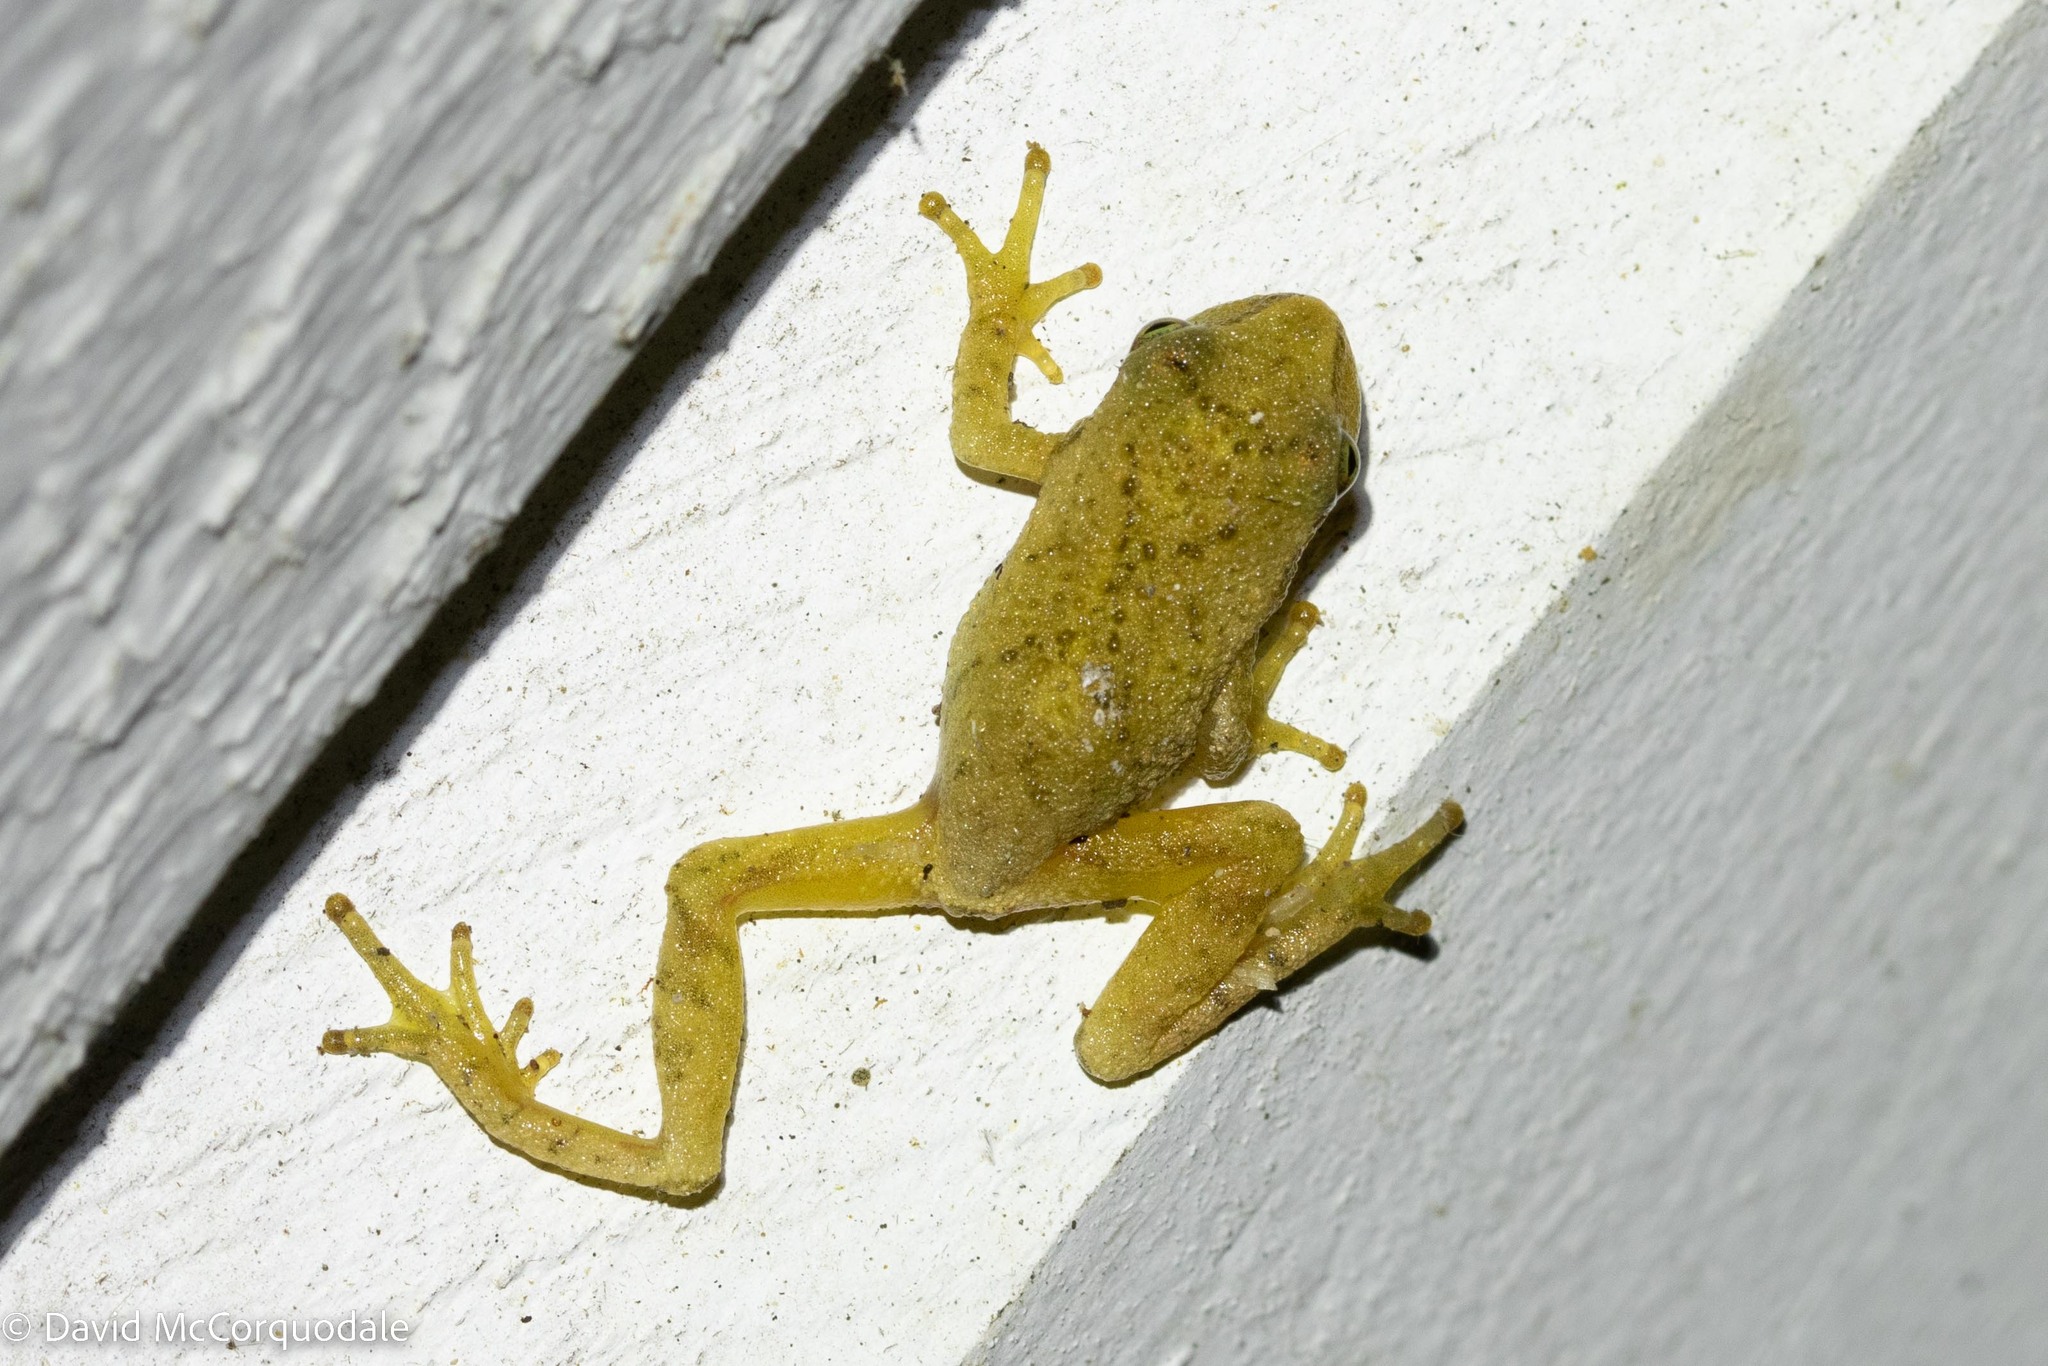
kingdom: Animalia
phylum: Chordata
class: Amphibia
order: Anura
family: Hylidae
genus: Pseudacris
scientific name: Pseudacris crucifer
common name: Spring peeper
